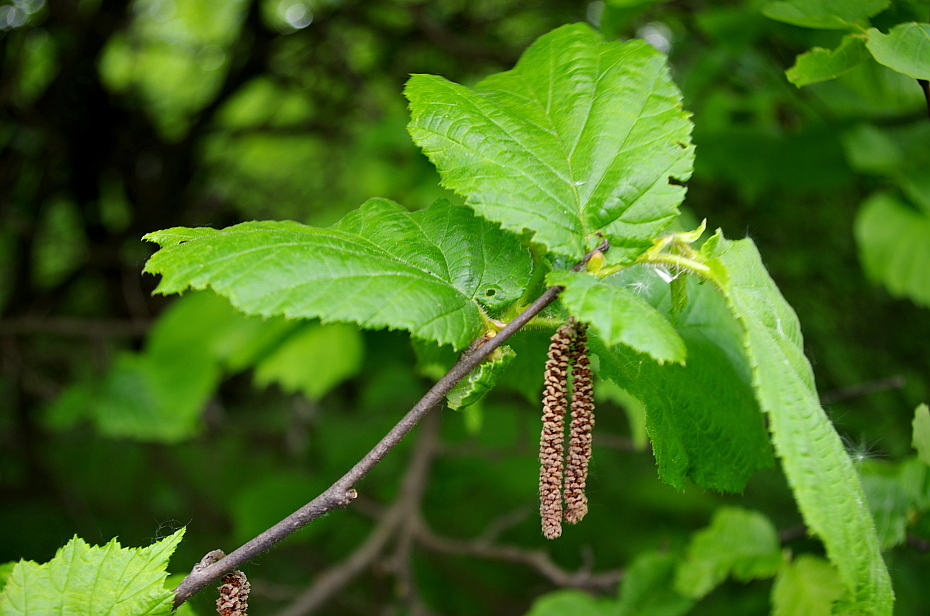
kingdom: Plantae
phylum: Tracheophyta
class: Magnoliopsida
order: Fagales
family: Betulaceae
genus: Corylus
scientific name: Corylus avellana
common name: European hazel
